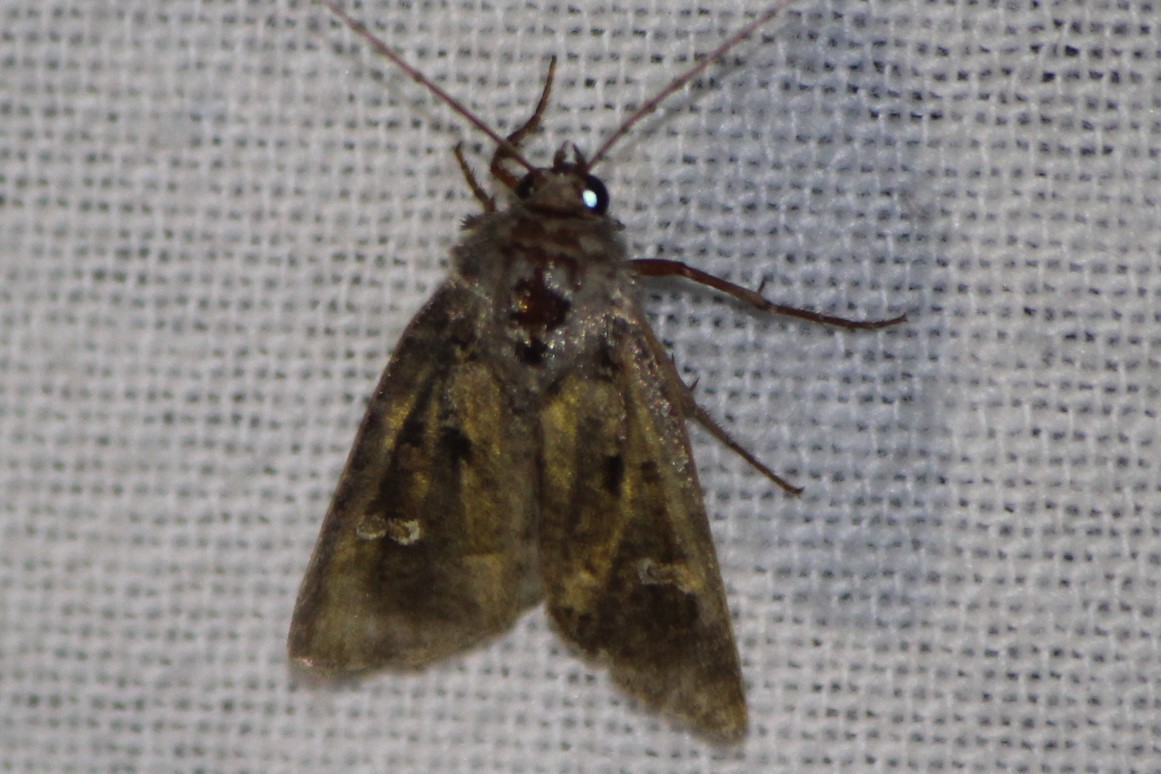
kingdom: Animalia
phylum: Arthropoda
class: Insecta
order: Lepidoptera
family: Noctuidae
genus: Lacinipolia
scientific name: Lacinipolia renigera
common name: Kidney-spotted minor
